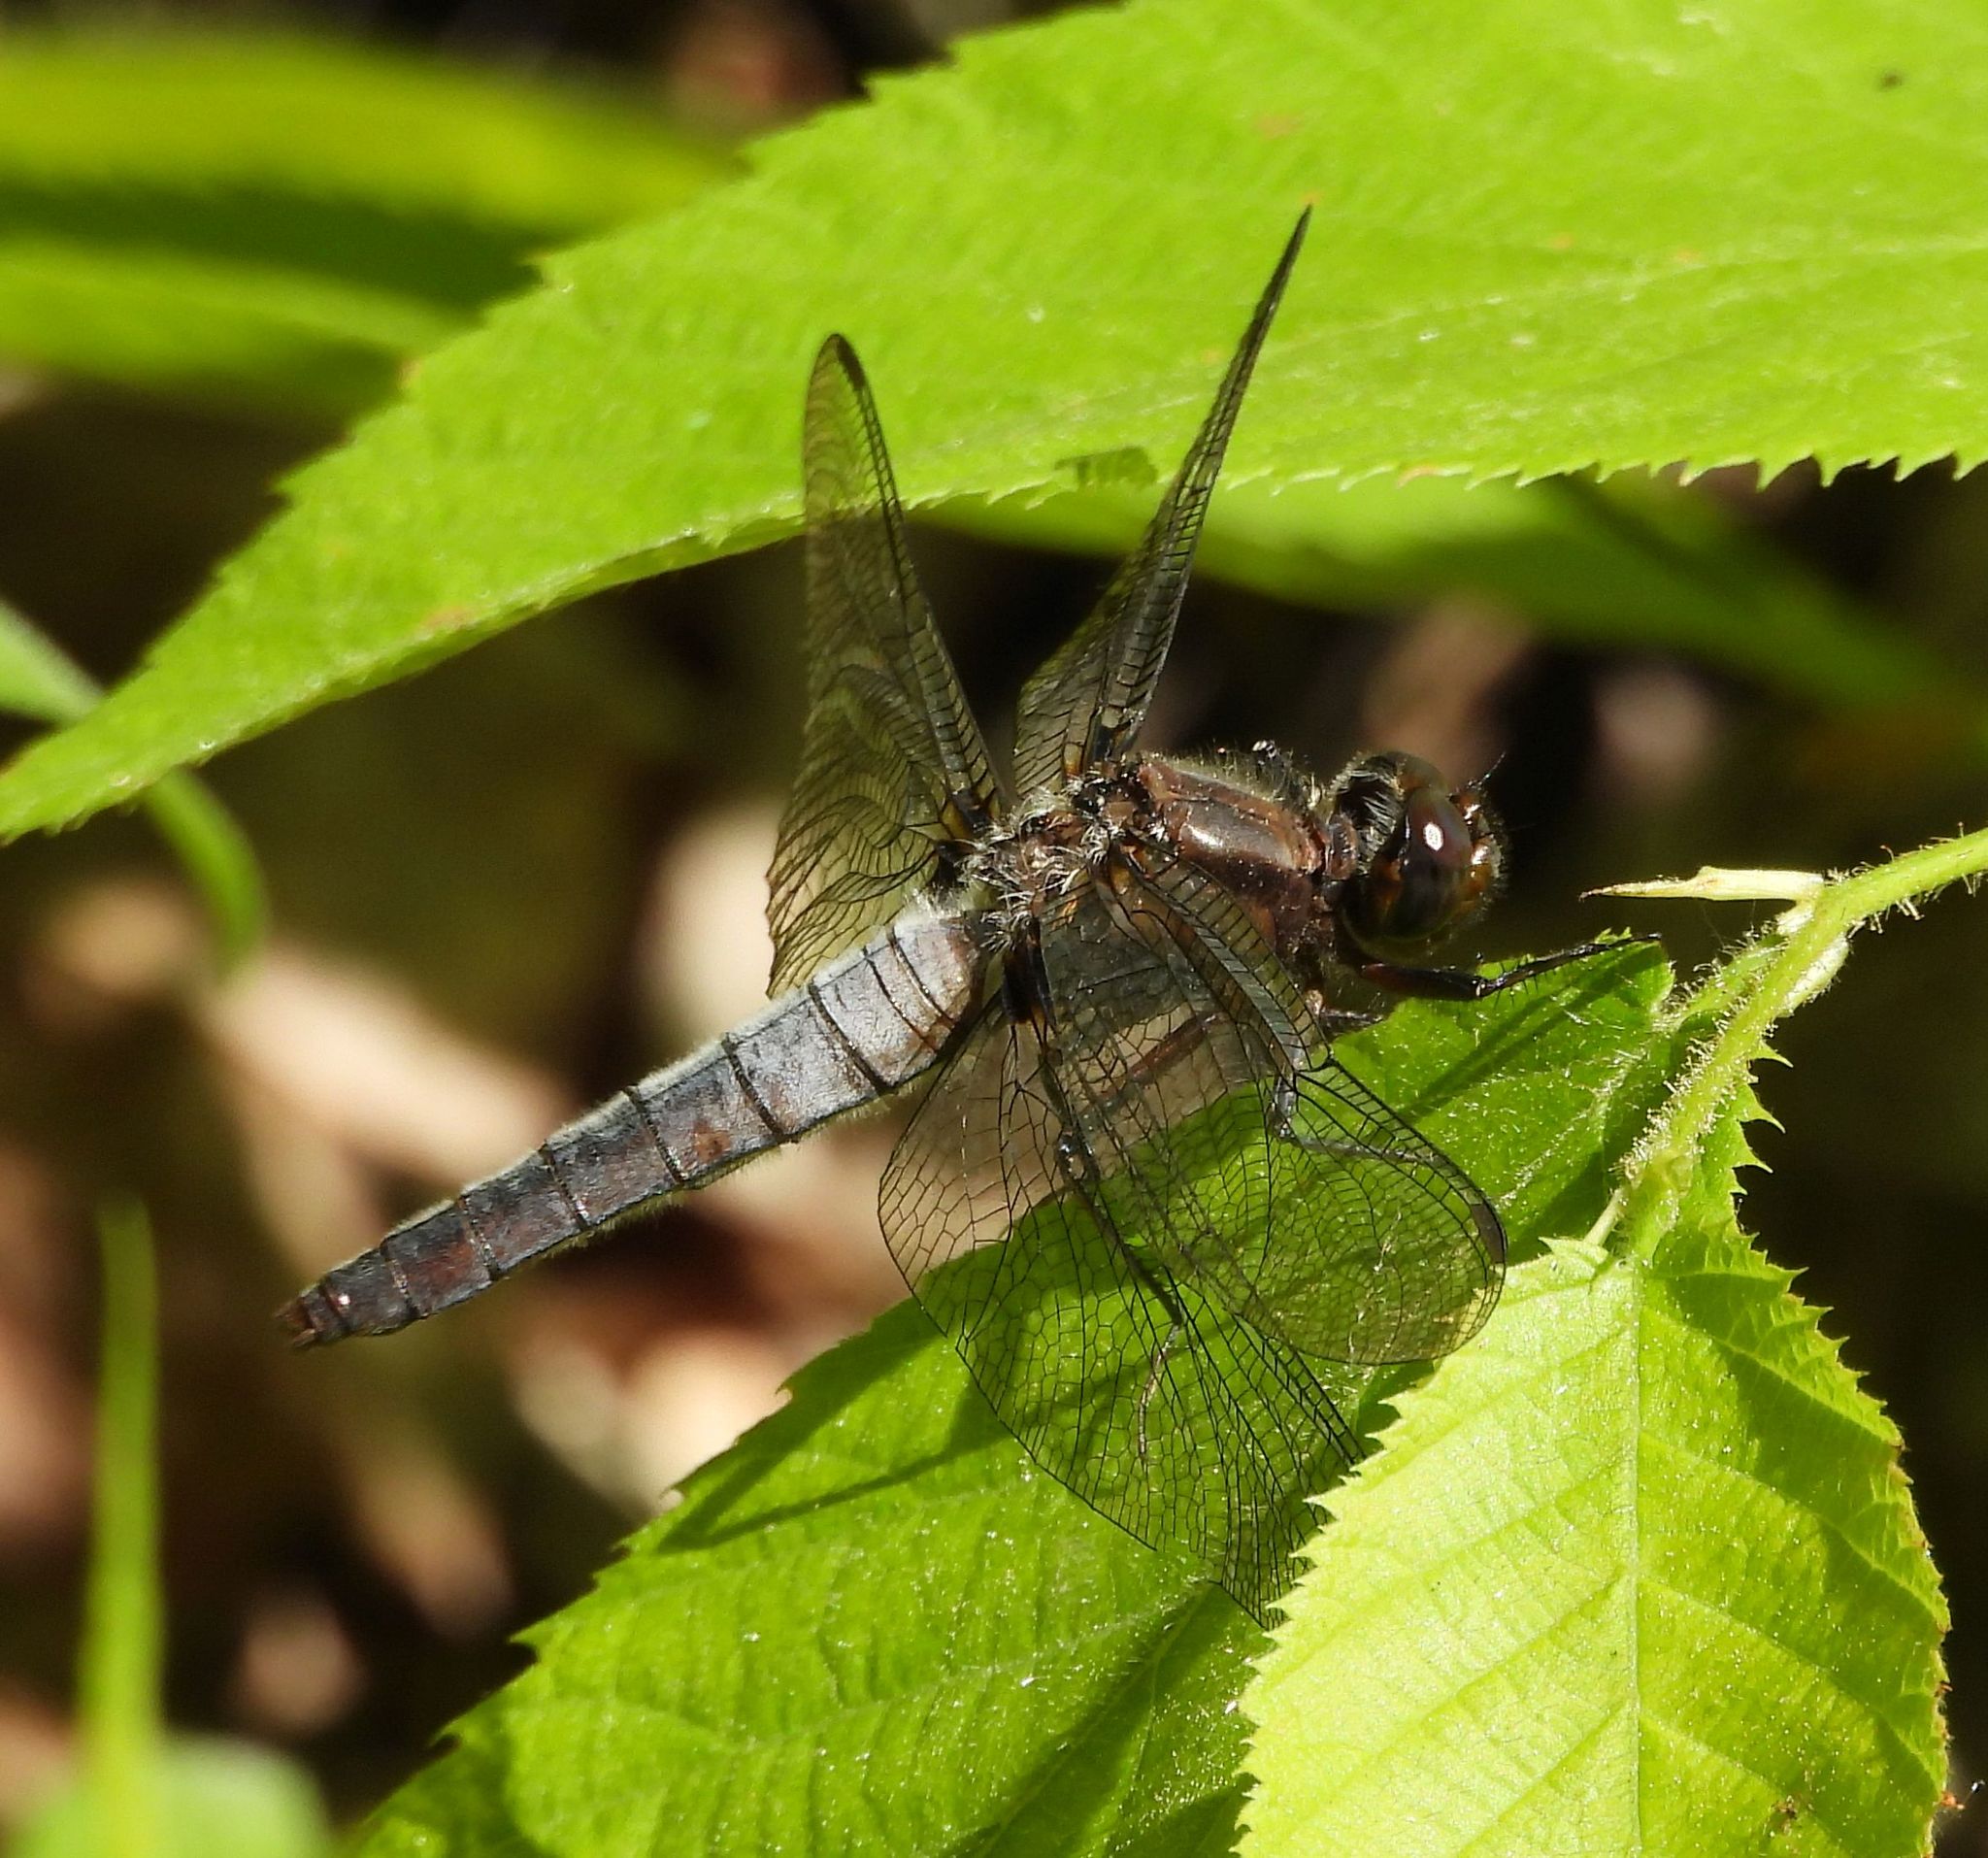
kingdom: Animalia
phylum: Arthropoda
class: Insecta
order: Odonata
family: Libellulidae
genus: Ladona
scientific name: Ladona julia
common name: Chalk-fronted corporal
